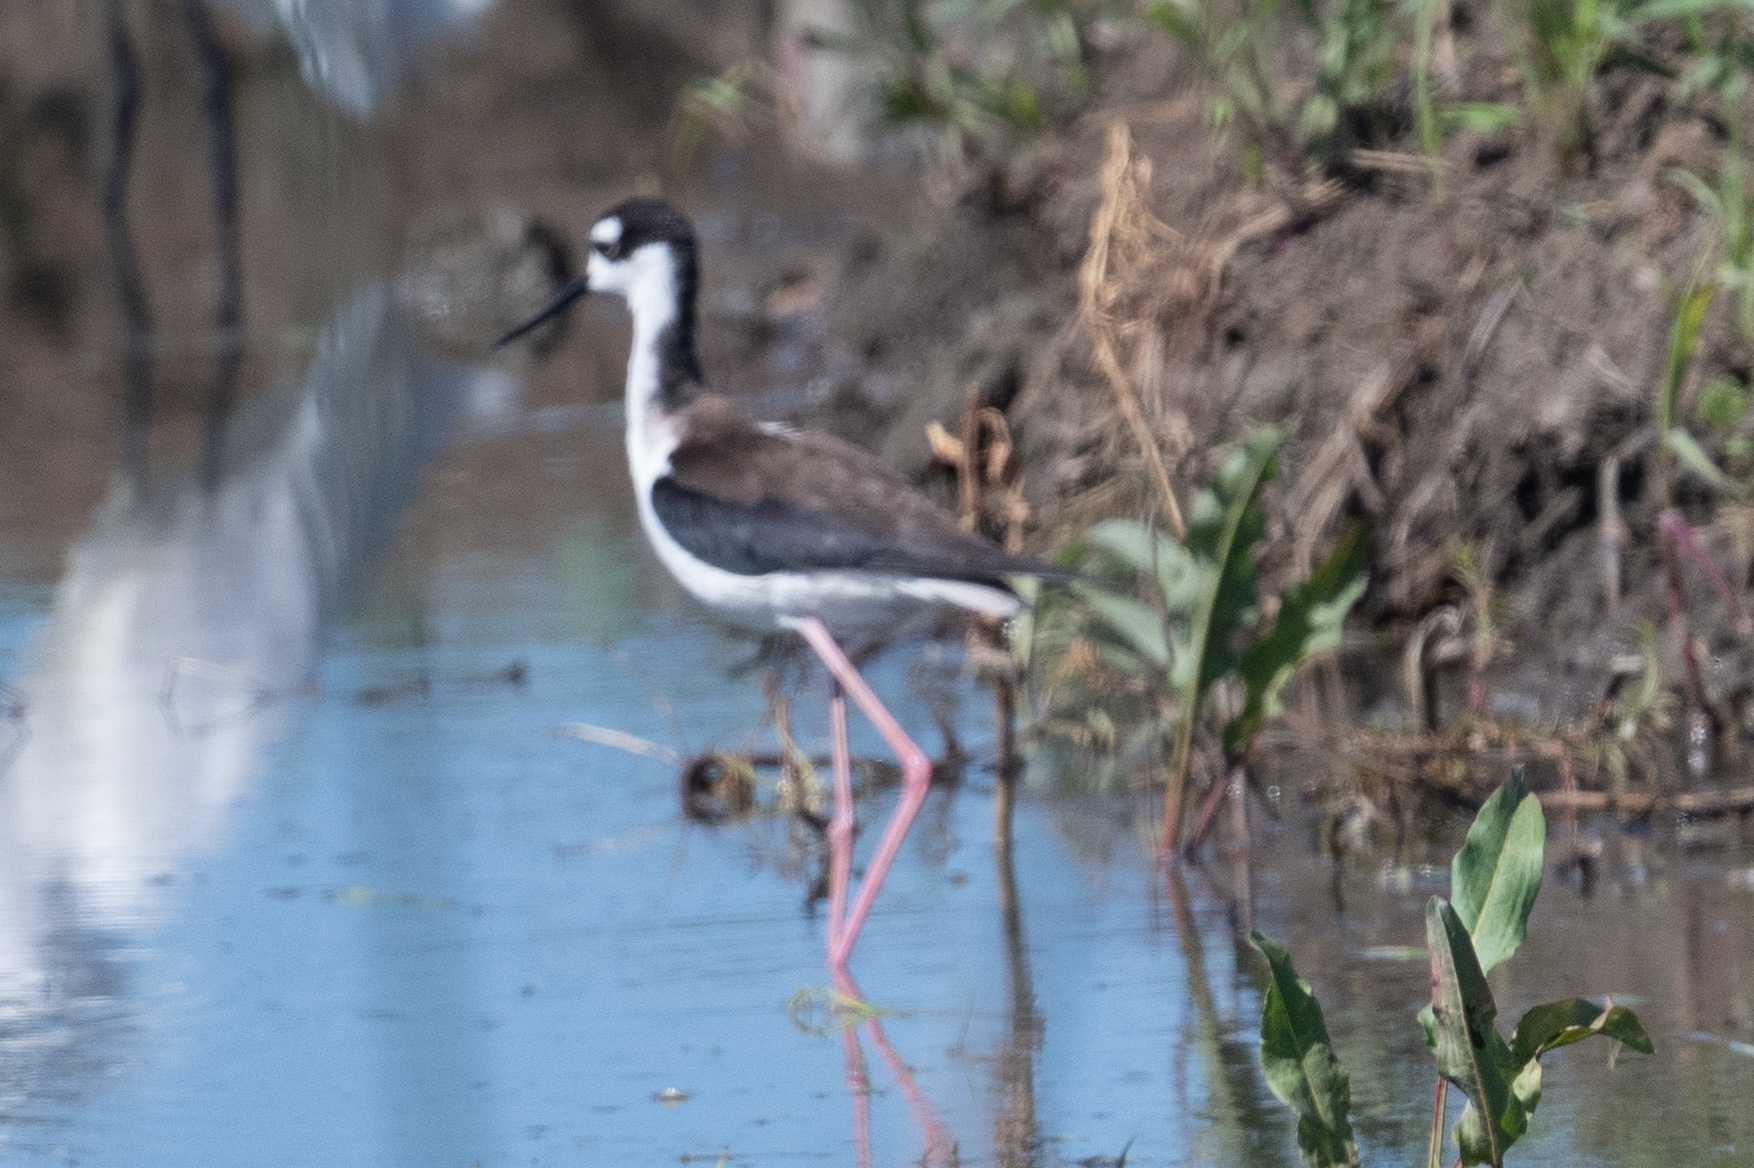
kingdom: Animalia
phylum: Chordata
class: Aves
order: Charadriiformes
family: Recurvirostridae
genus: Himantopus
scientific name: Himantopus mexicanus
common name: Black-necked stilt
